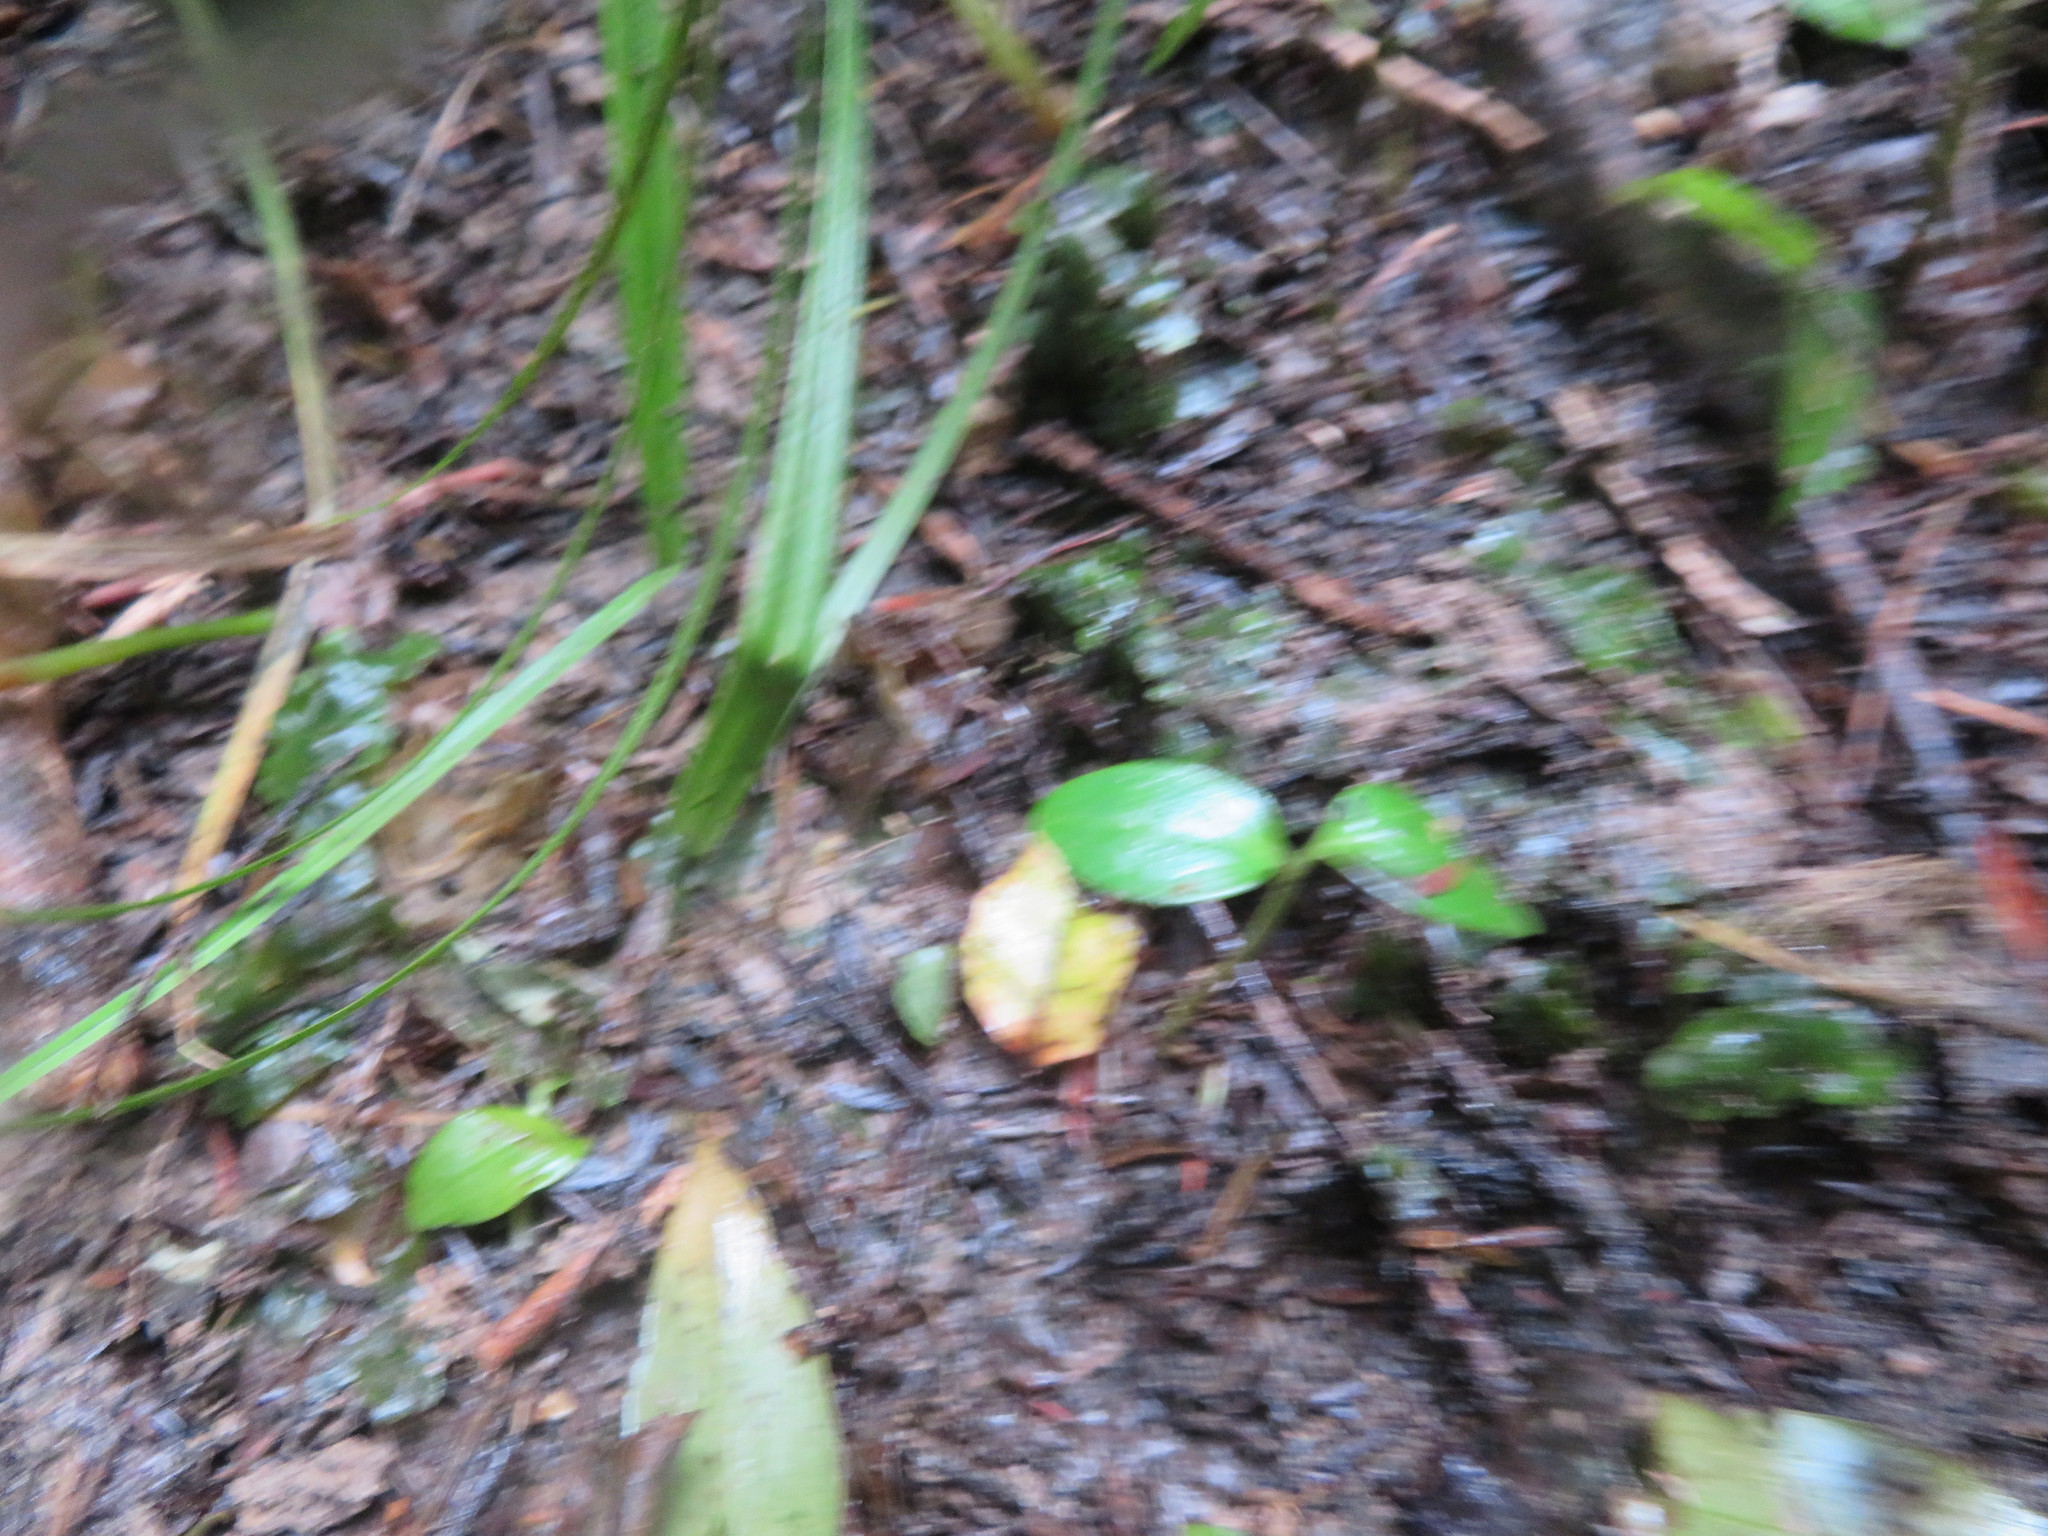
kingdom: Plantae
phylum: Tracheophyta
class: Magnoliopsida
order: Lamiales
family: Oleaceae
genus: Ligustrum
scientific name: Ligustrum lucidum
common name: Glossy privet
